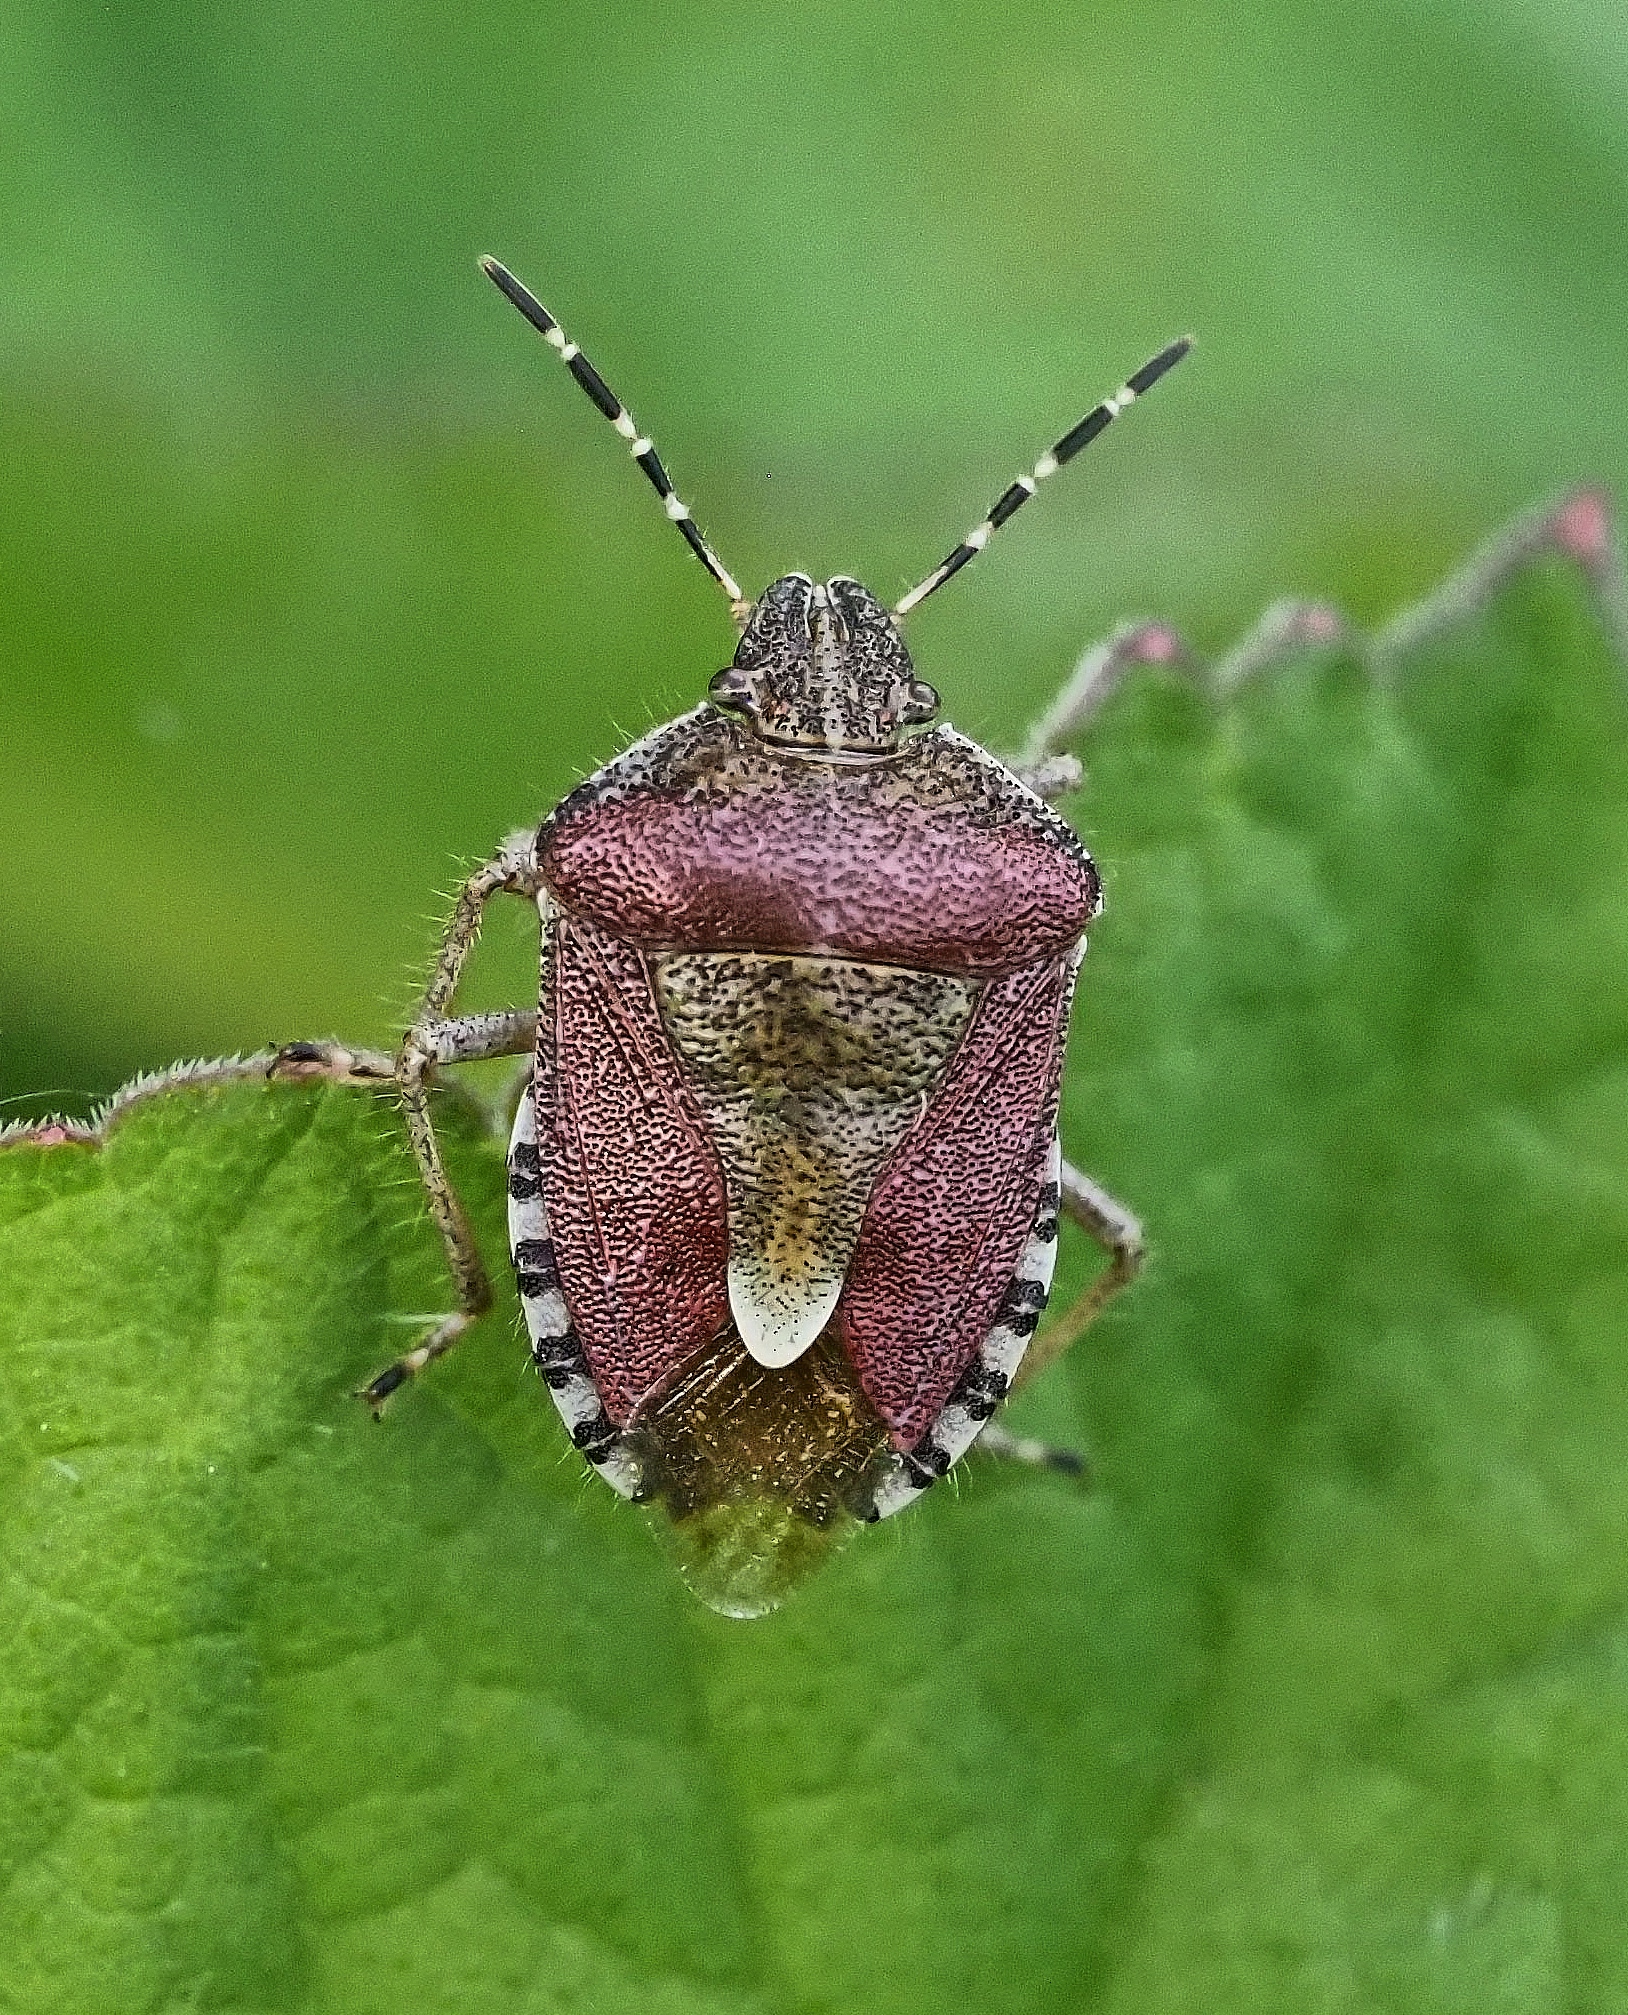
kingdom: Animalia
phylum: Arthropoda
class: Insecta
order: Hemiptera
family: Pentatomidae
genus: Dolycoris
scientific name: Dolycoris baccarum
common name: Sloe bug
